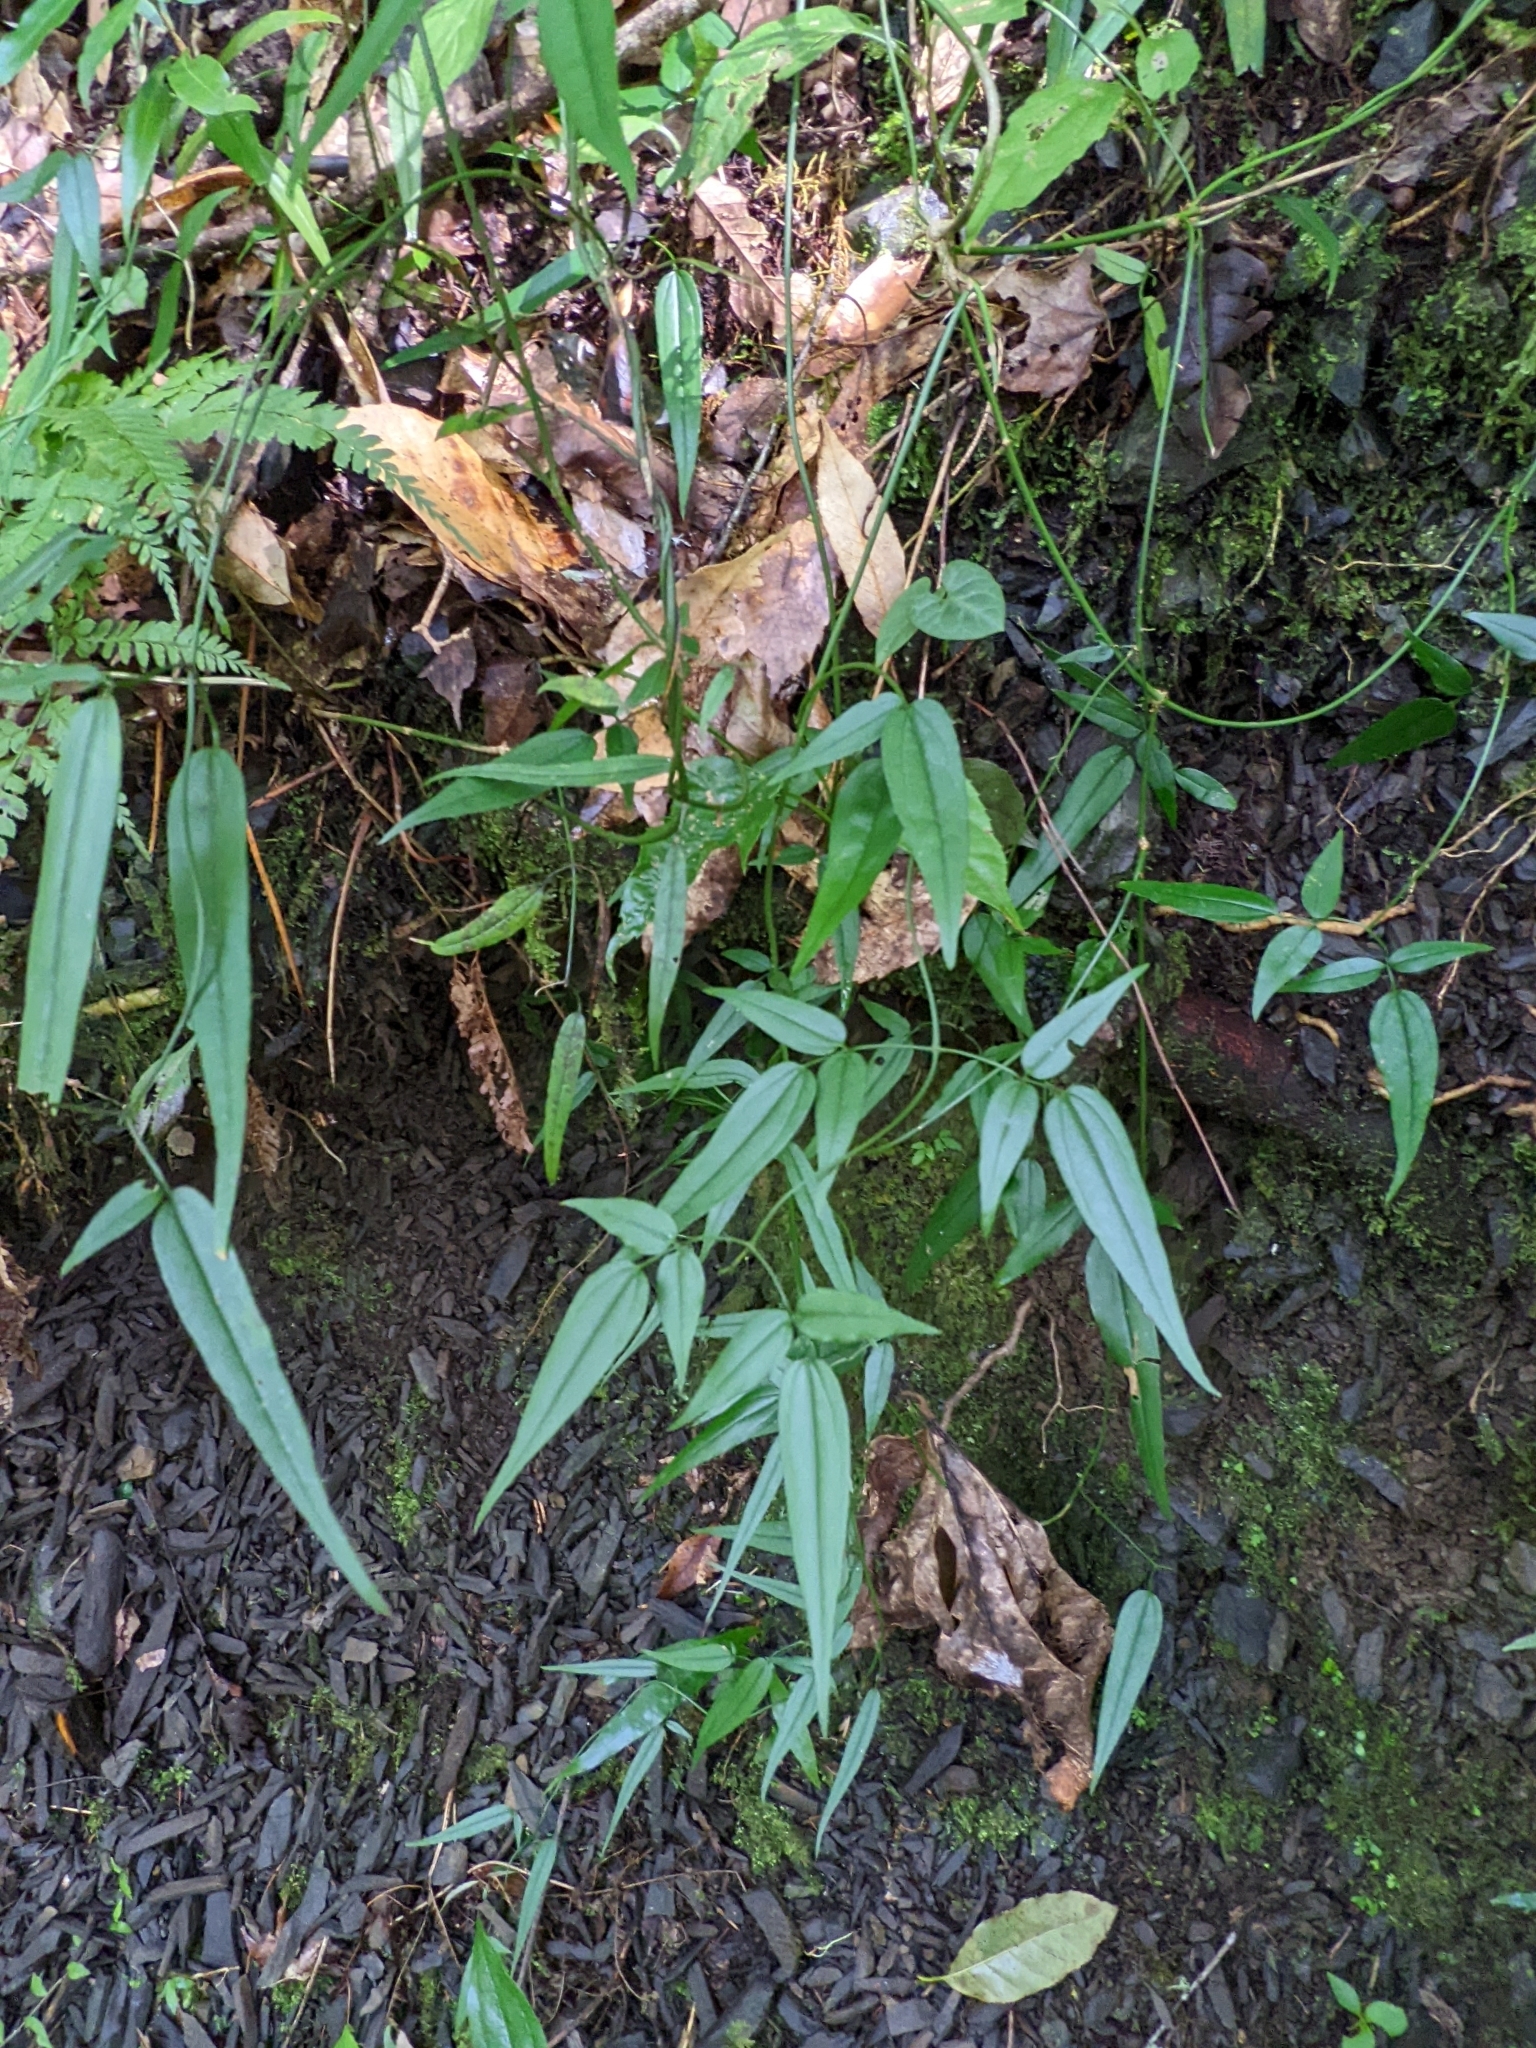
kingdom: Plantae
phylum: Tracheophyta
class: Magnoliopsida
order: Lamiales
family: Oleaceae
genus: Jasminum
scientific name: Jasminum urophyllum
